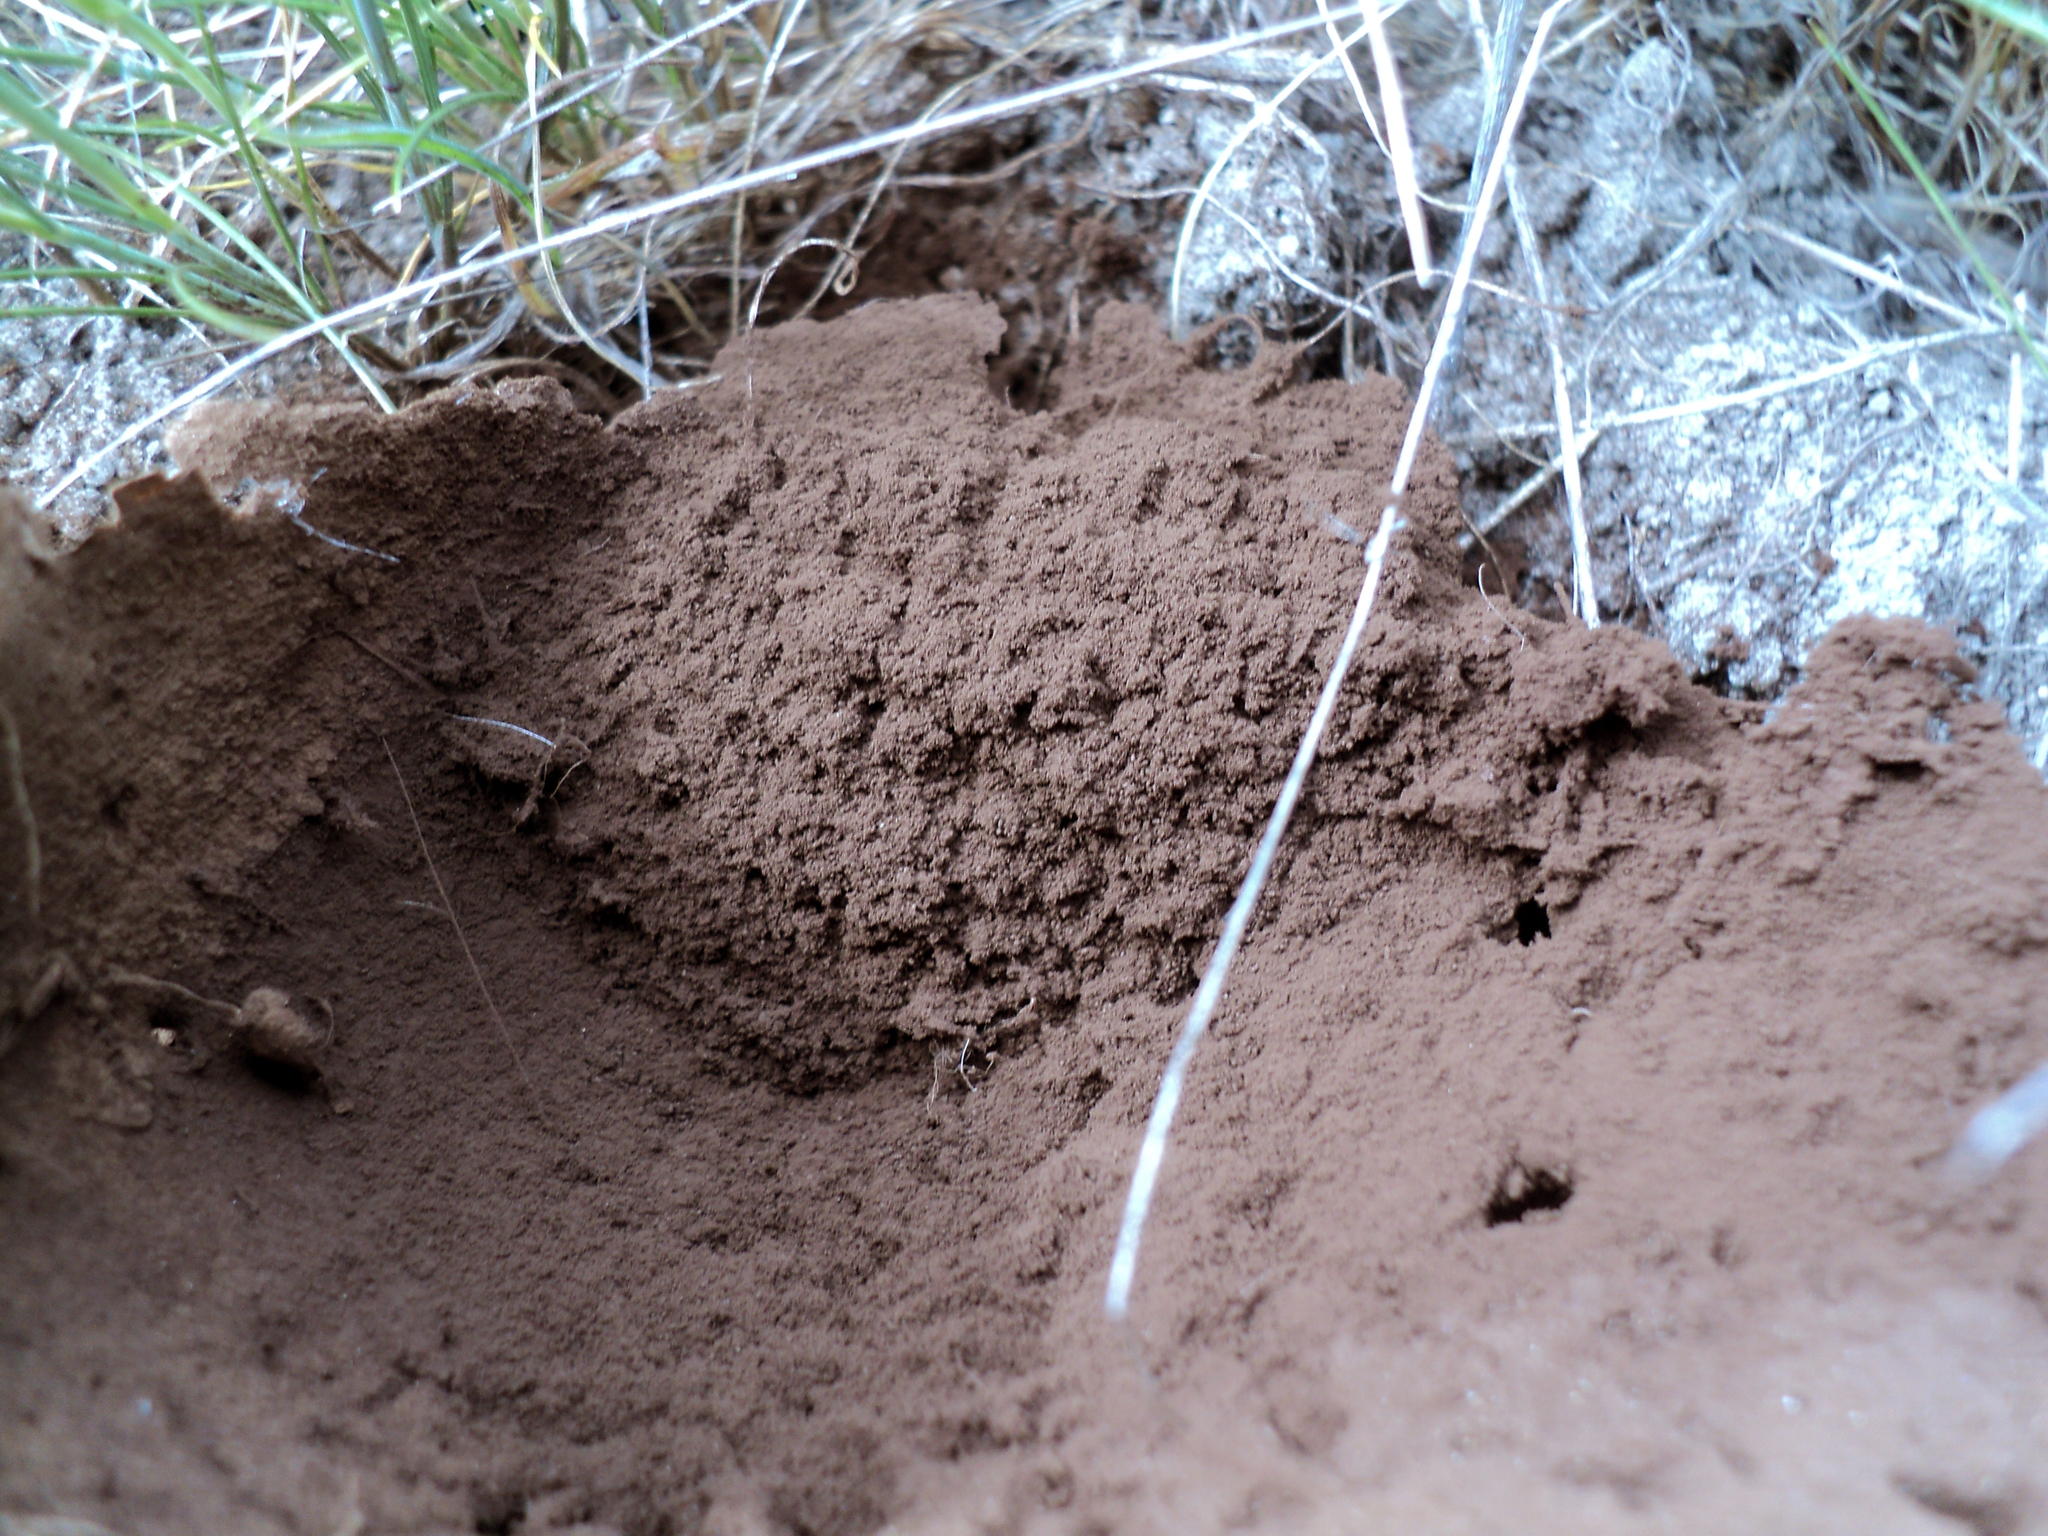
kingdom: Fungi
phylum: Basidiomycota
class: Agaricomycetes
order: Agaricales
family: Lycoperdaceae
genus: Bovistella
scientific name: Bovistella utriformis
